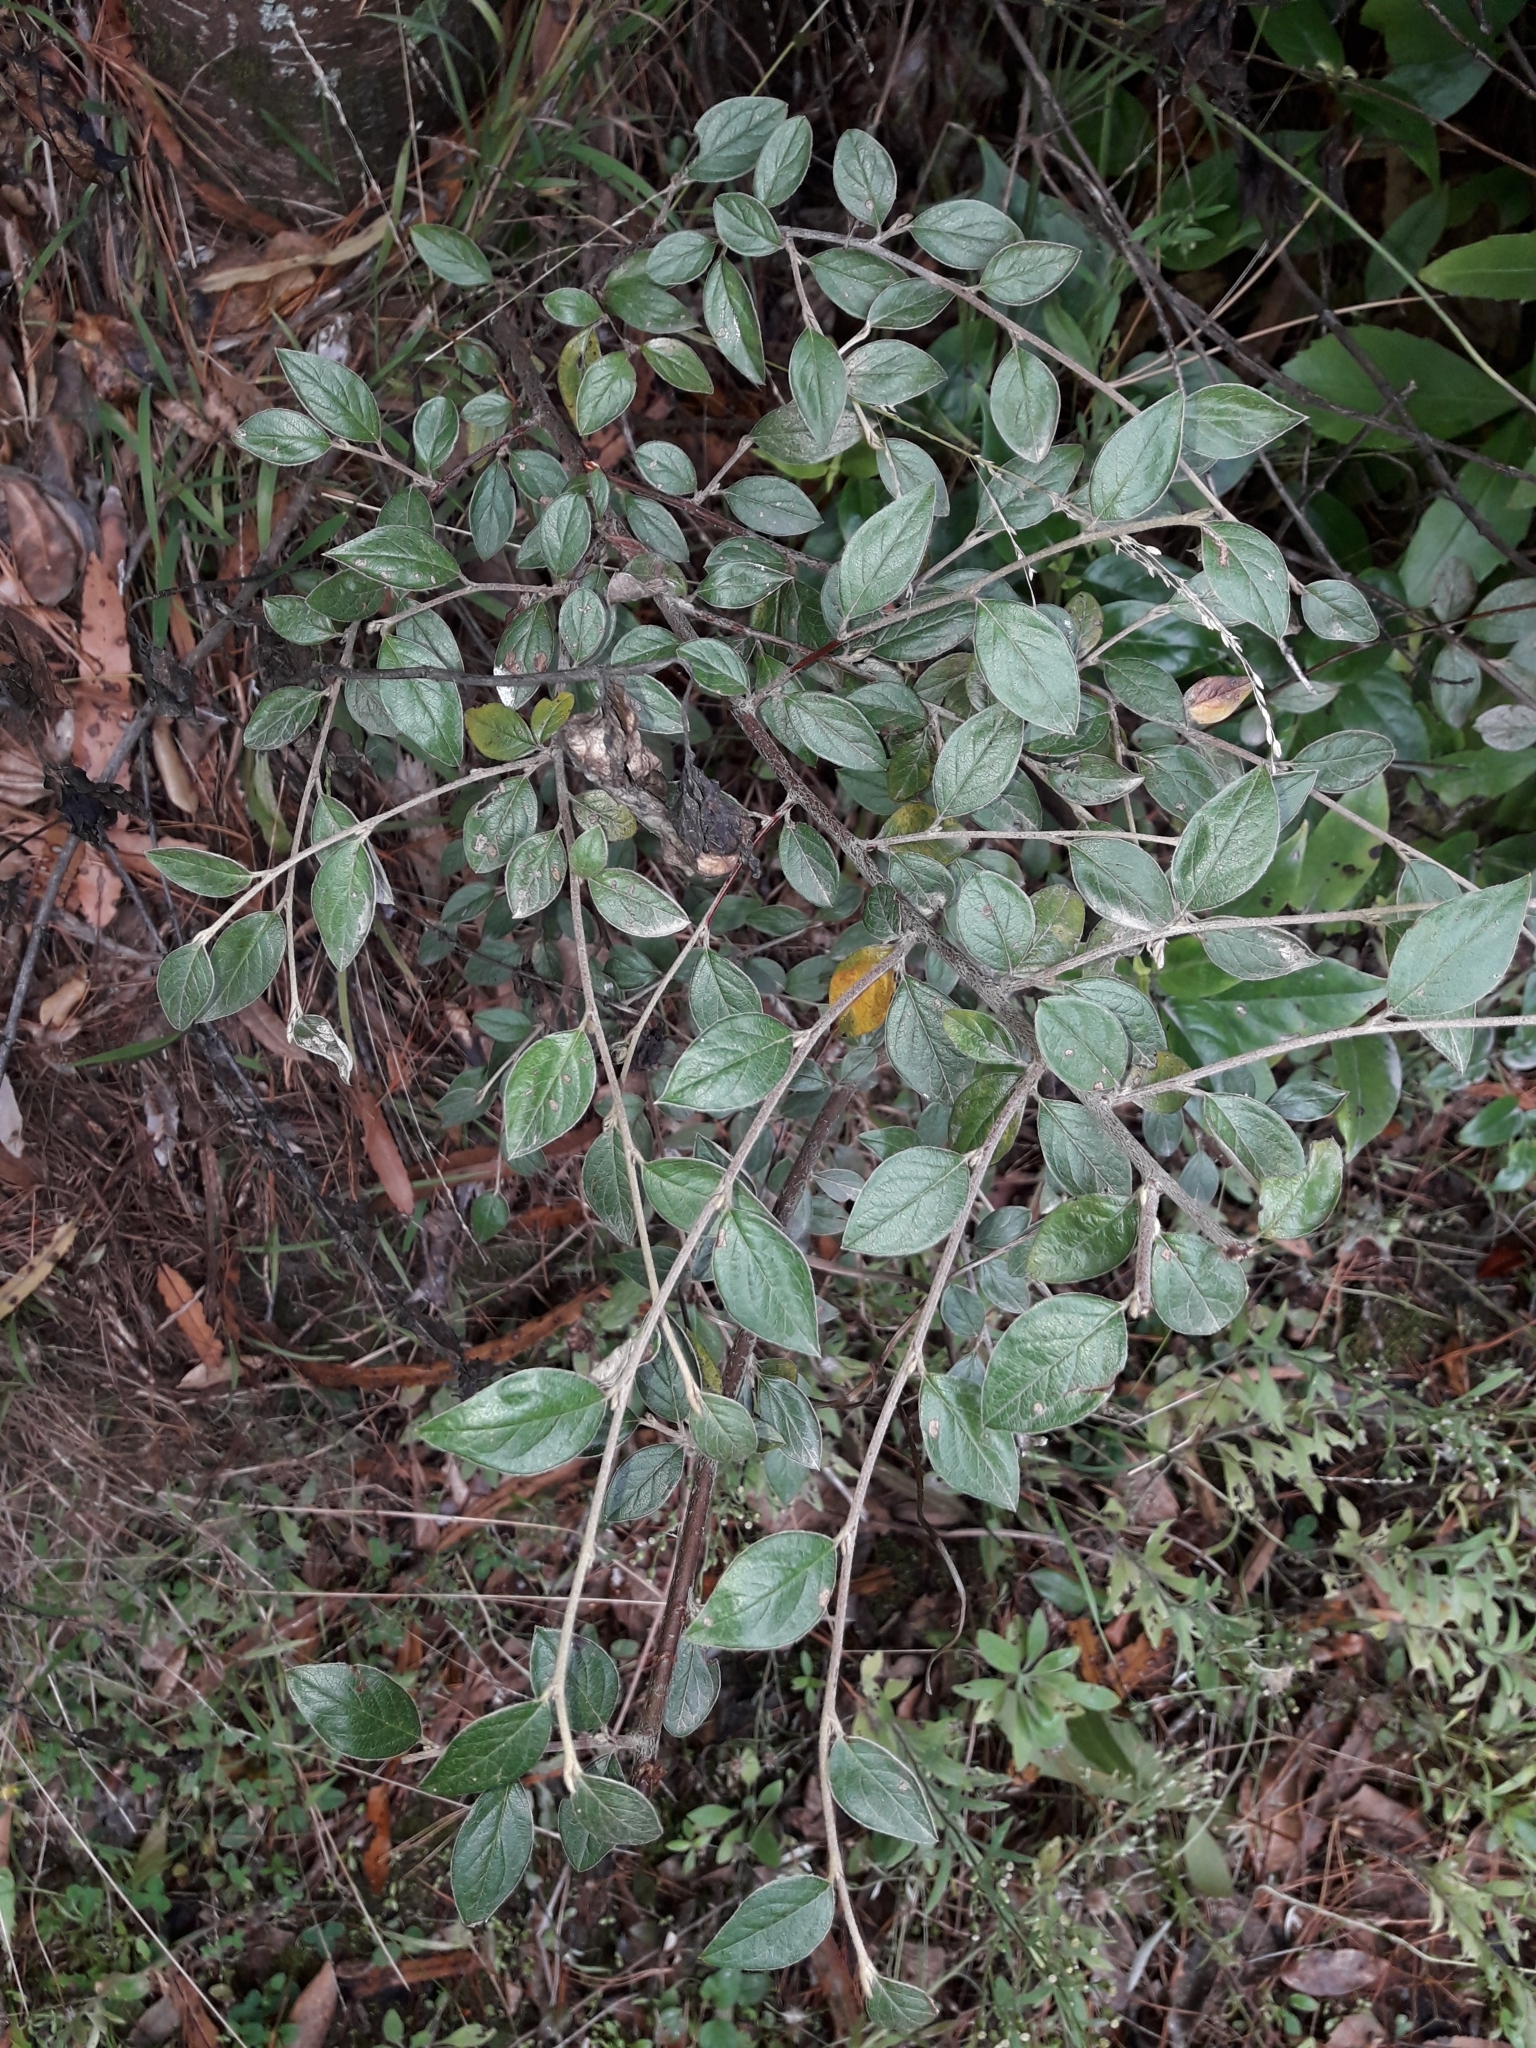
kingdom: Plantae
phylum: Tracheophyta
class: Magnoliopsida
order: Rosales
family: Rosaceae
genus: Cotoneaster
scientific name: Cotoneaster franchetii
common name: Franchet's cotoneaster
